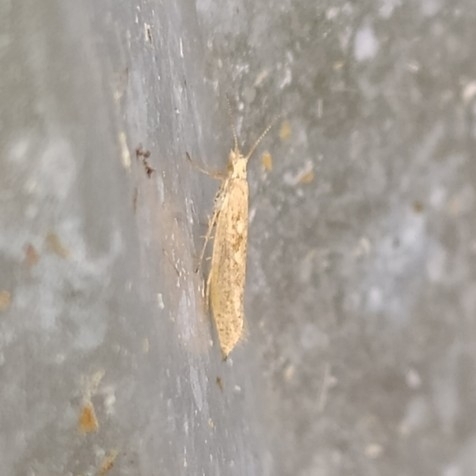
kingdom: Animalia
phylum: Arthropoda
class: Insecta
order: Lepidoptera
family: Plutellidae
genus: Plutella
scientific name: Plutella xylostella
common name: Diamond-back moth
